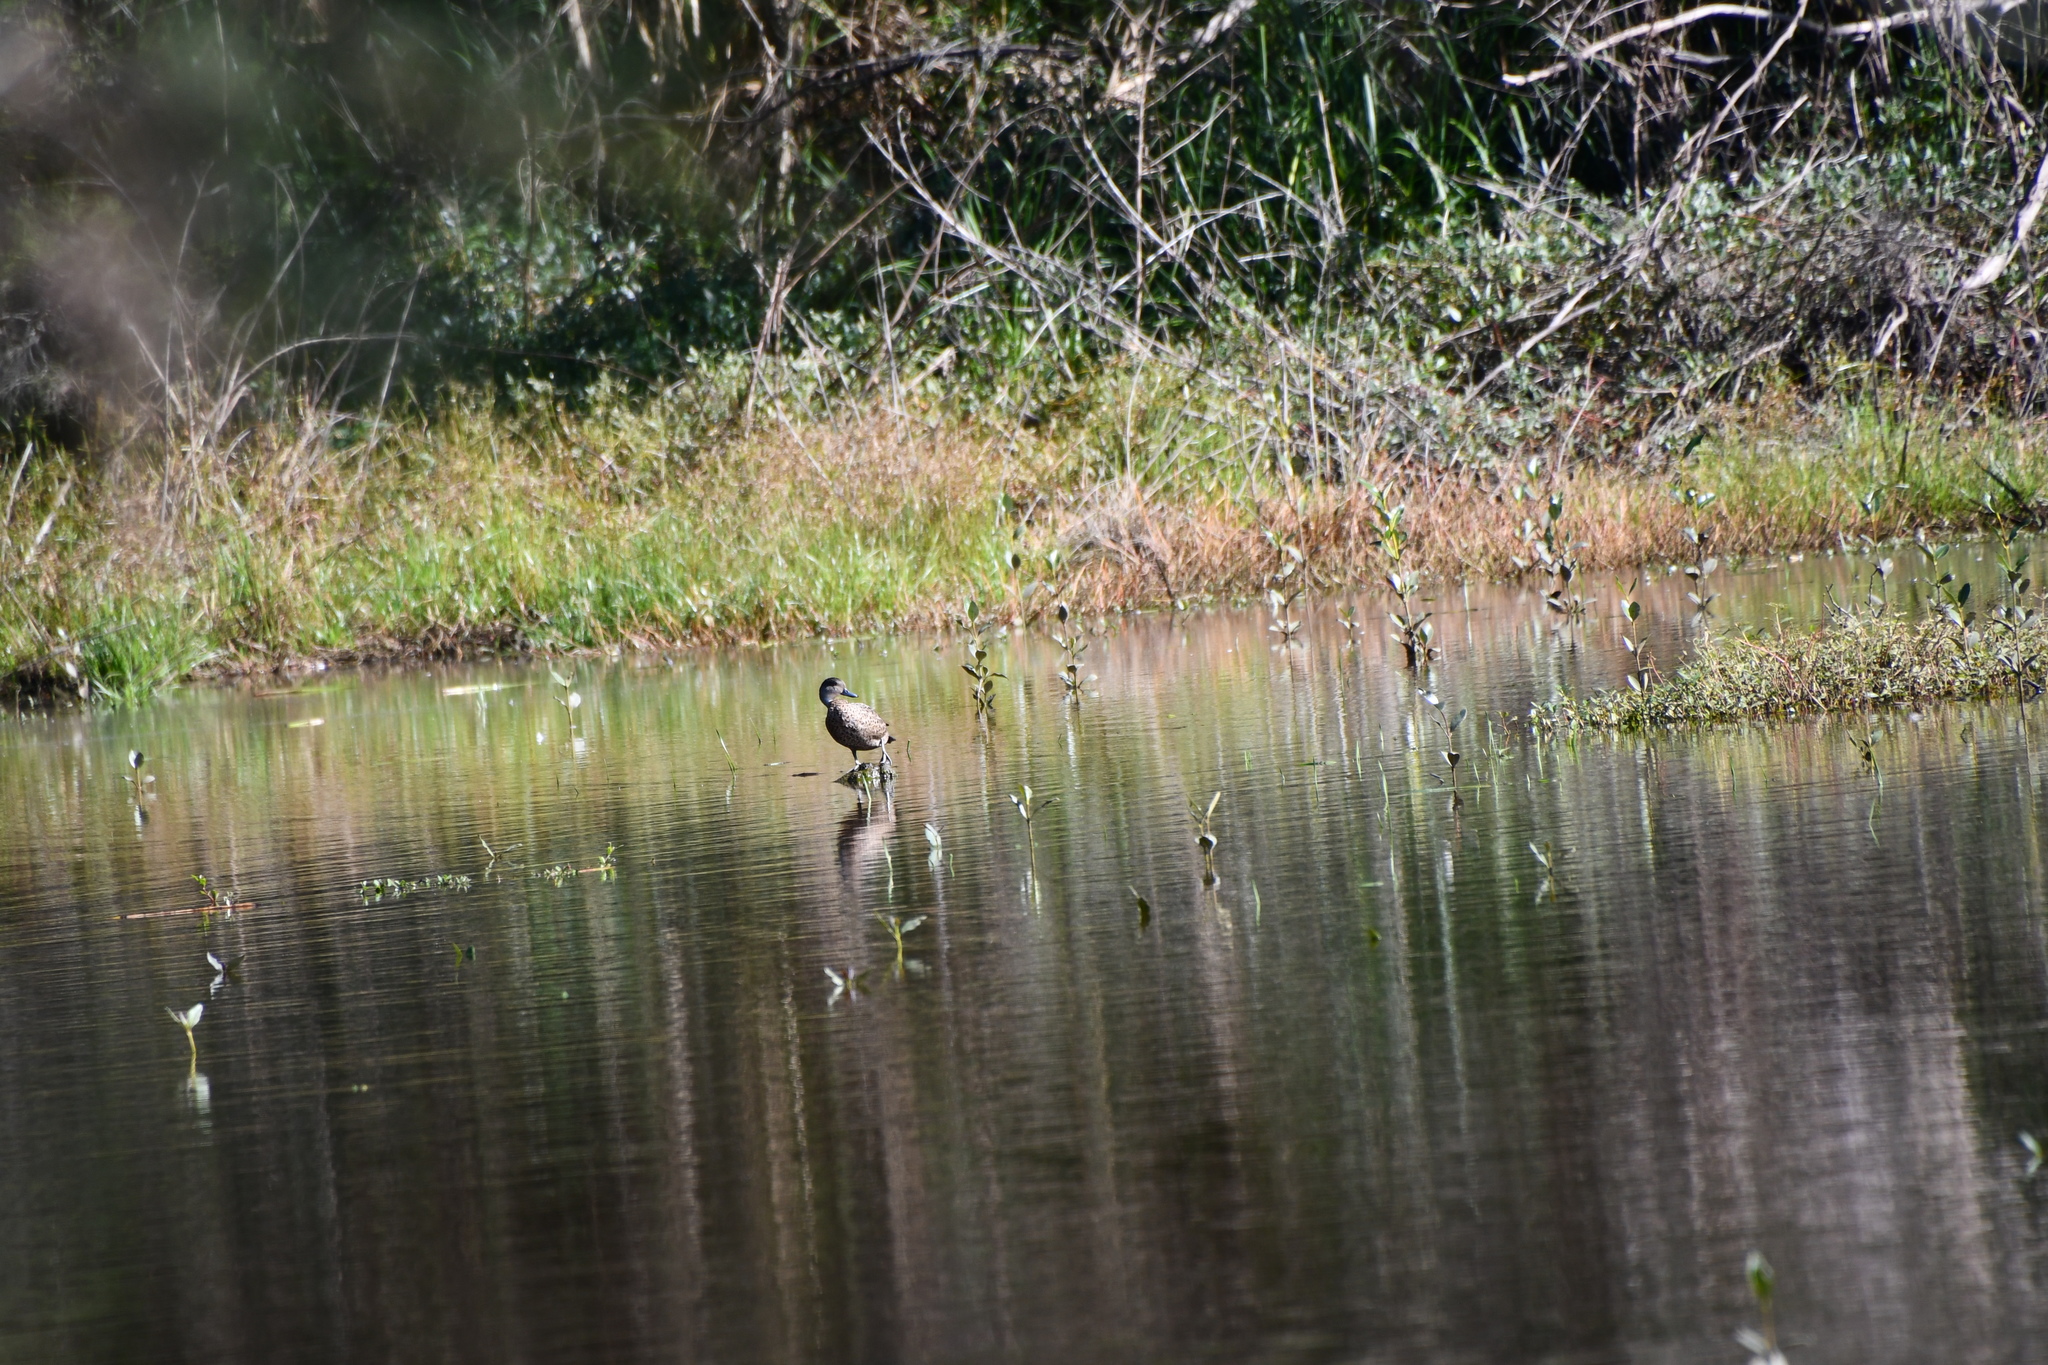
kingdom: Animalia
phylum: Chordata
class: Aves
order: Anseriformes
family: Anatidae
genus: Anas
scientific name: Anas gracilis
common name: Grey teal
